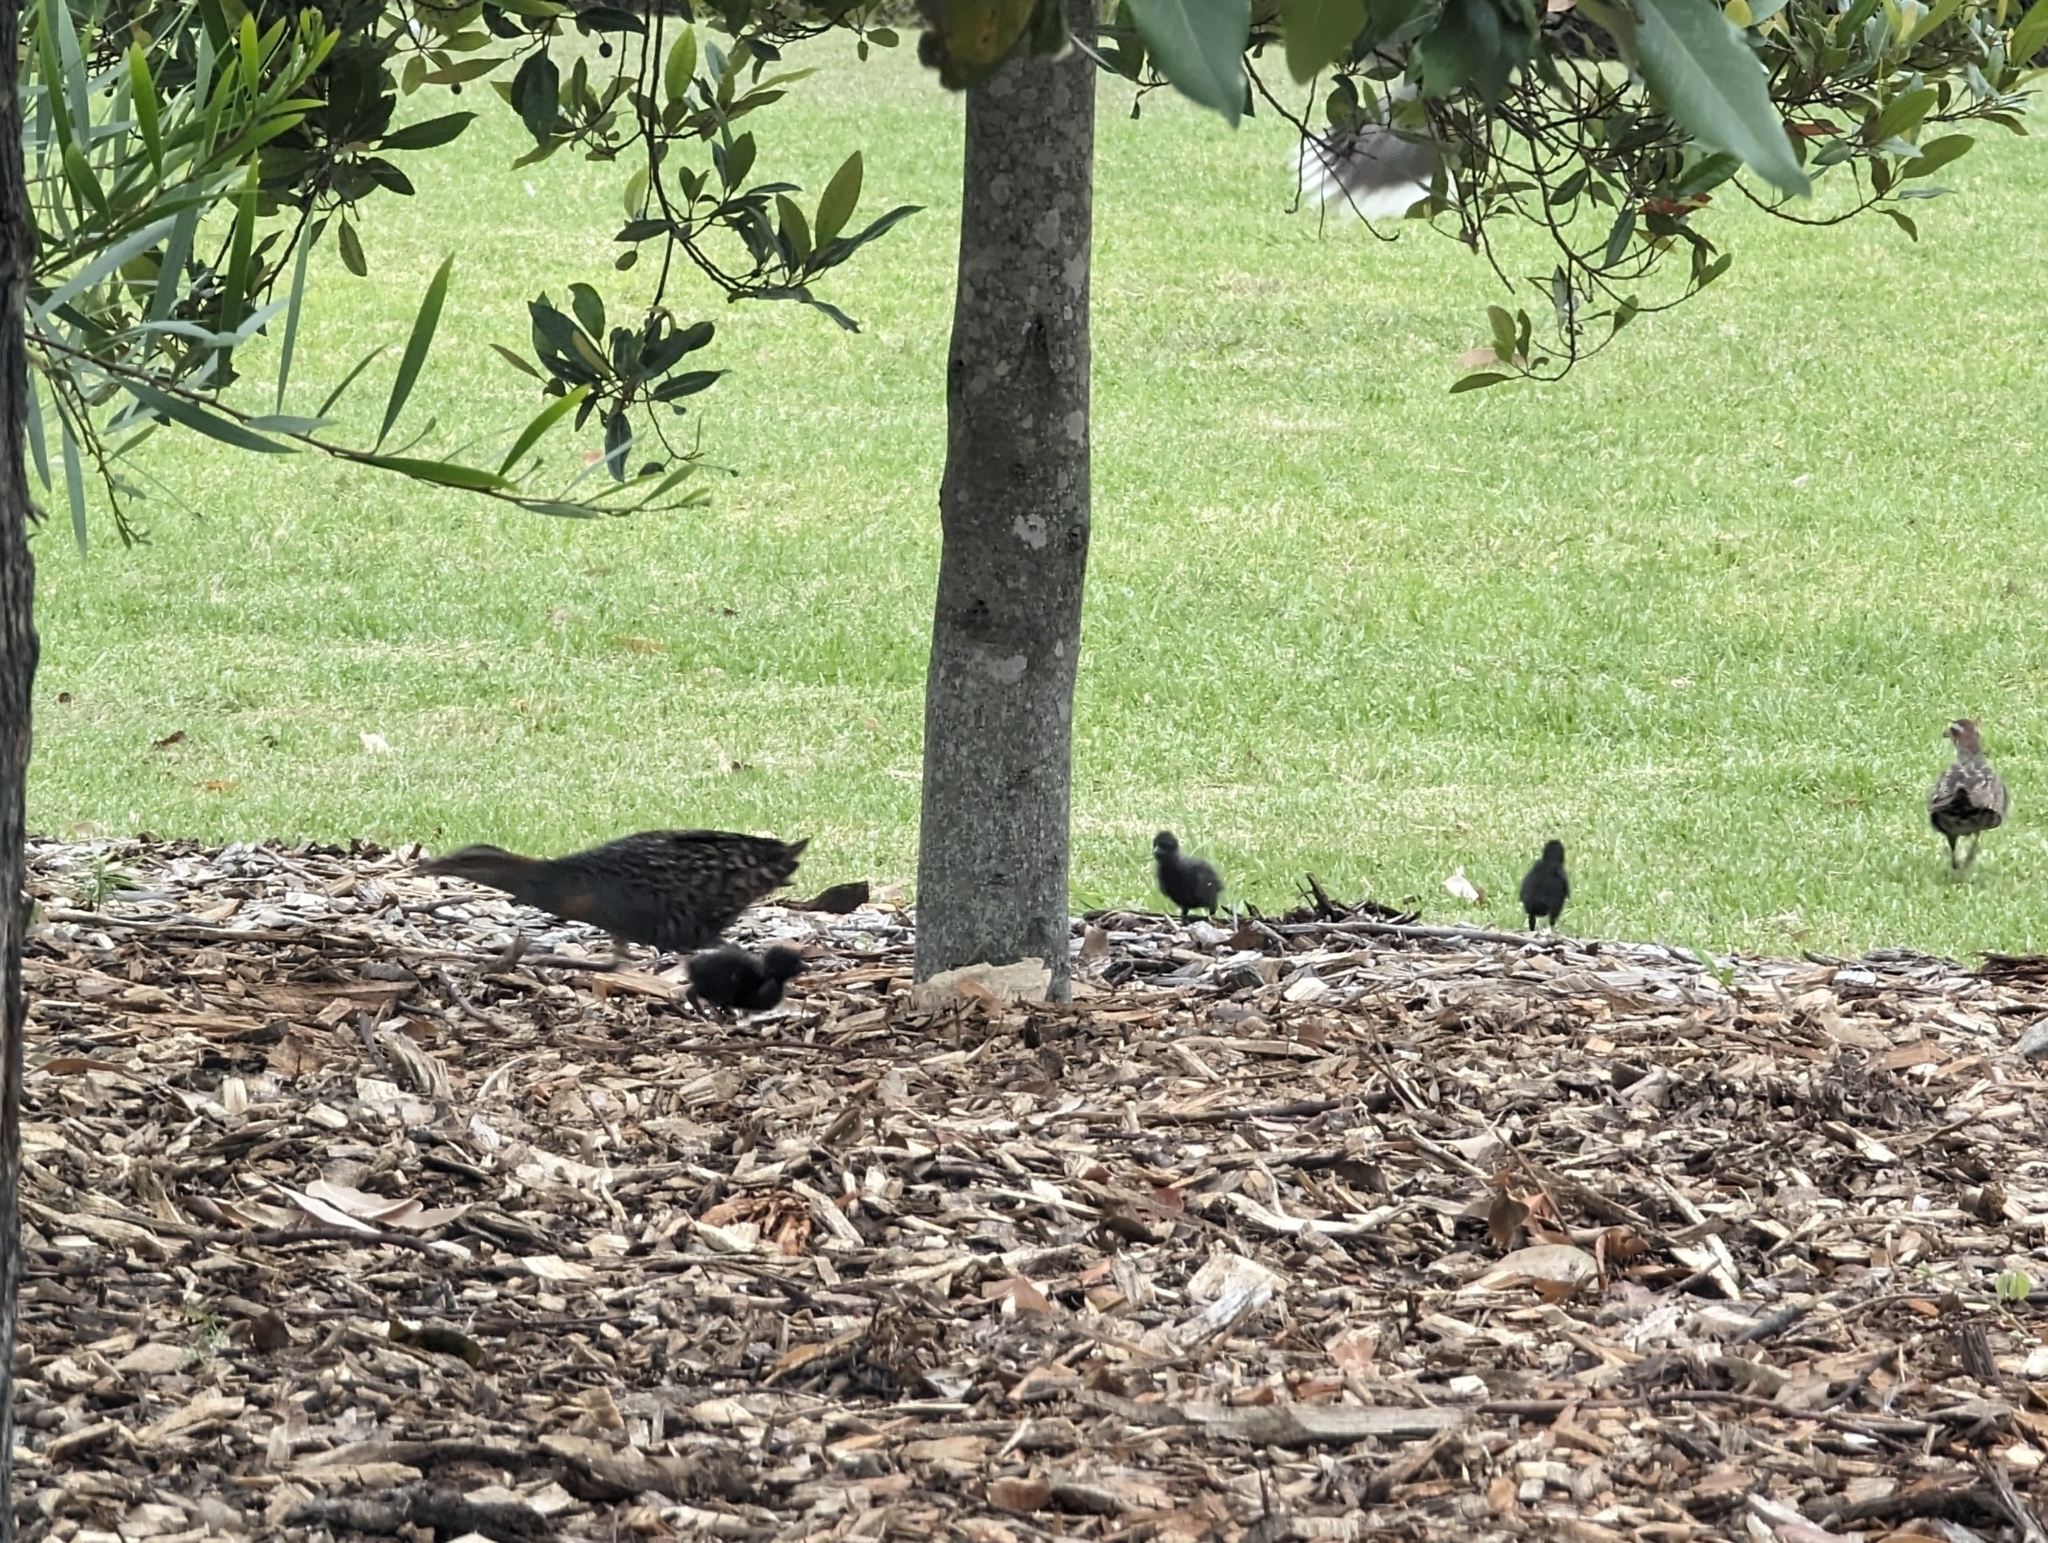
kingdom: Animalia
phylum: Chordata
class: Aves
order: Gruiformes
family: Rallidae
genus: Gallirallus
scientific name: Gallirallus philippensis
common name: Buff-banded rail
